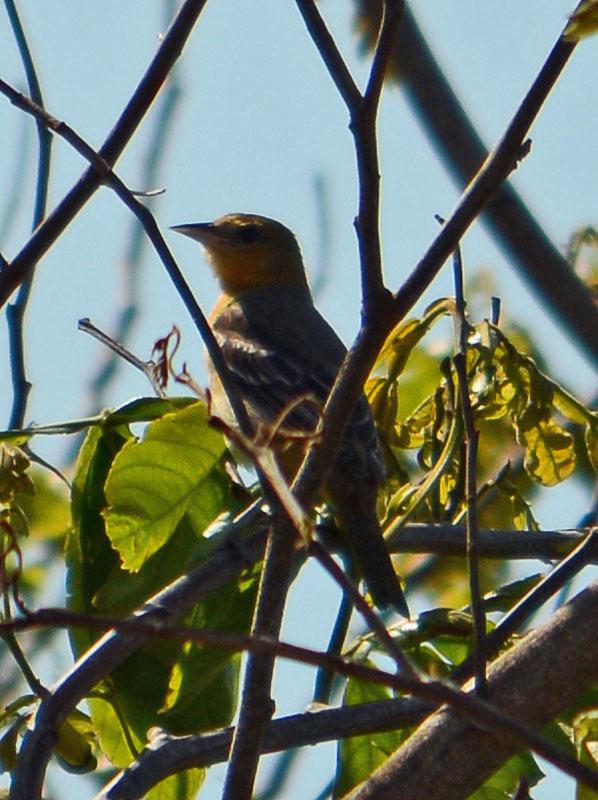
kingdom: Animalia
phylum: Chordata
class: Aves
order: Passeriformes
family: Icteridae
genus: Icterus
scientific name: Icterus galbula
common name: Baltimore oriole
